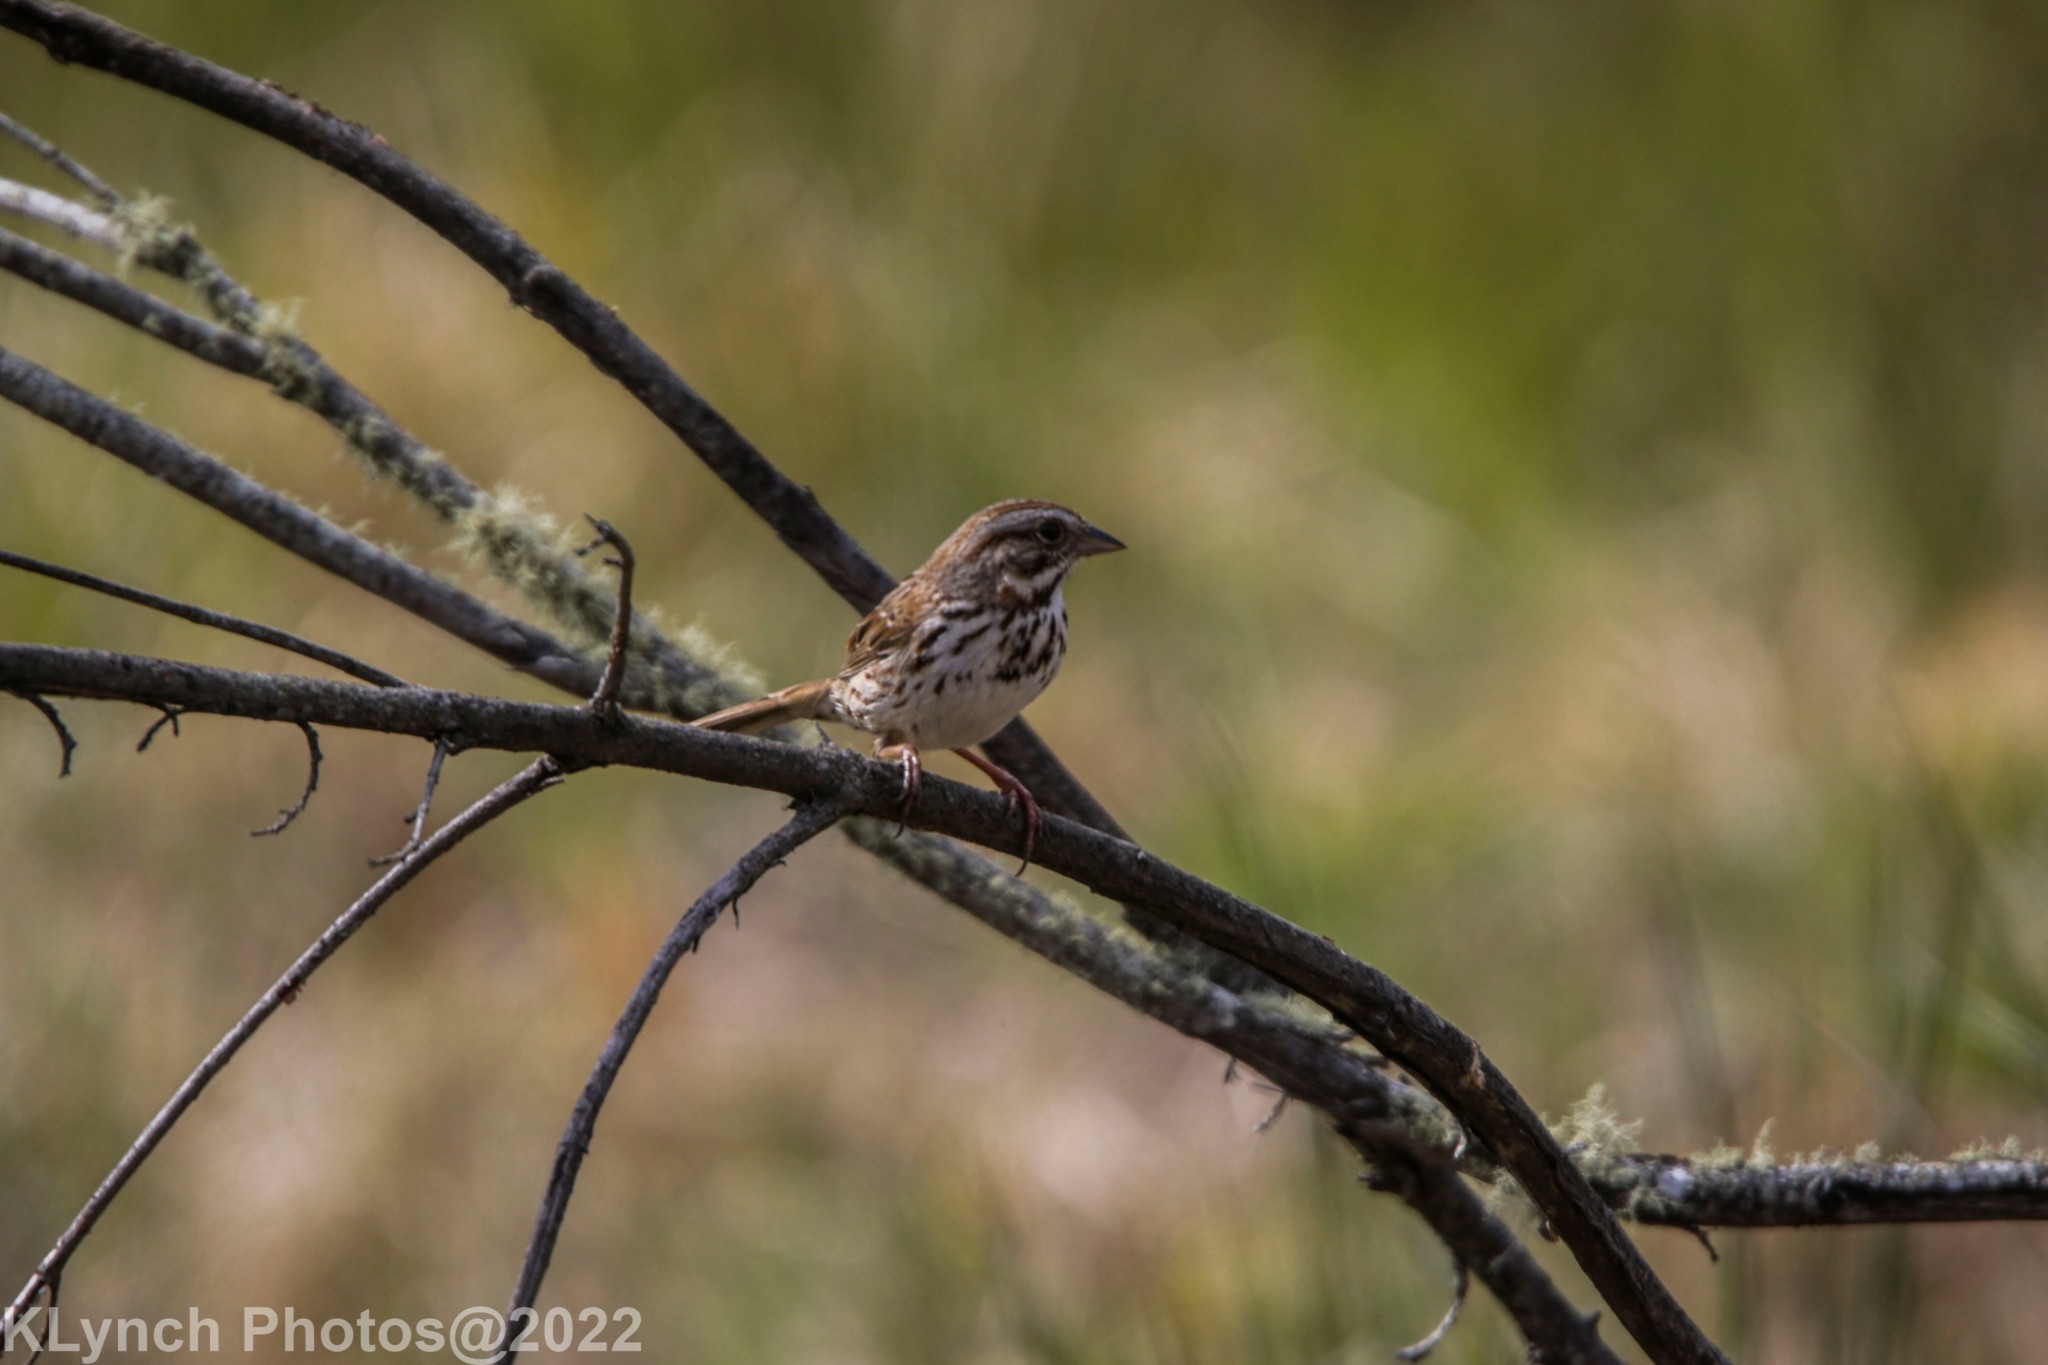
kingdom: Animalia
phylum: Chordata
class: Aves
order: Passeriformes
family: Passerellidae
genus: Melospiza
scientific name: Melospiza melodia
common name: Song sparrow
